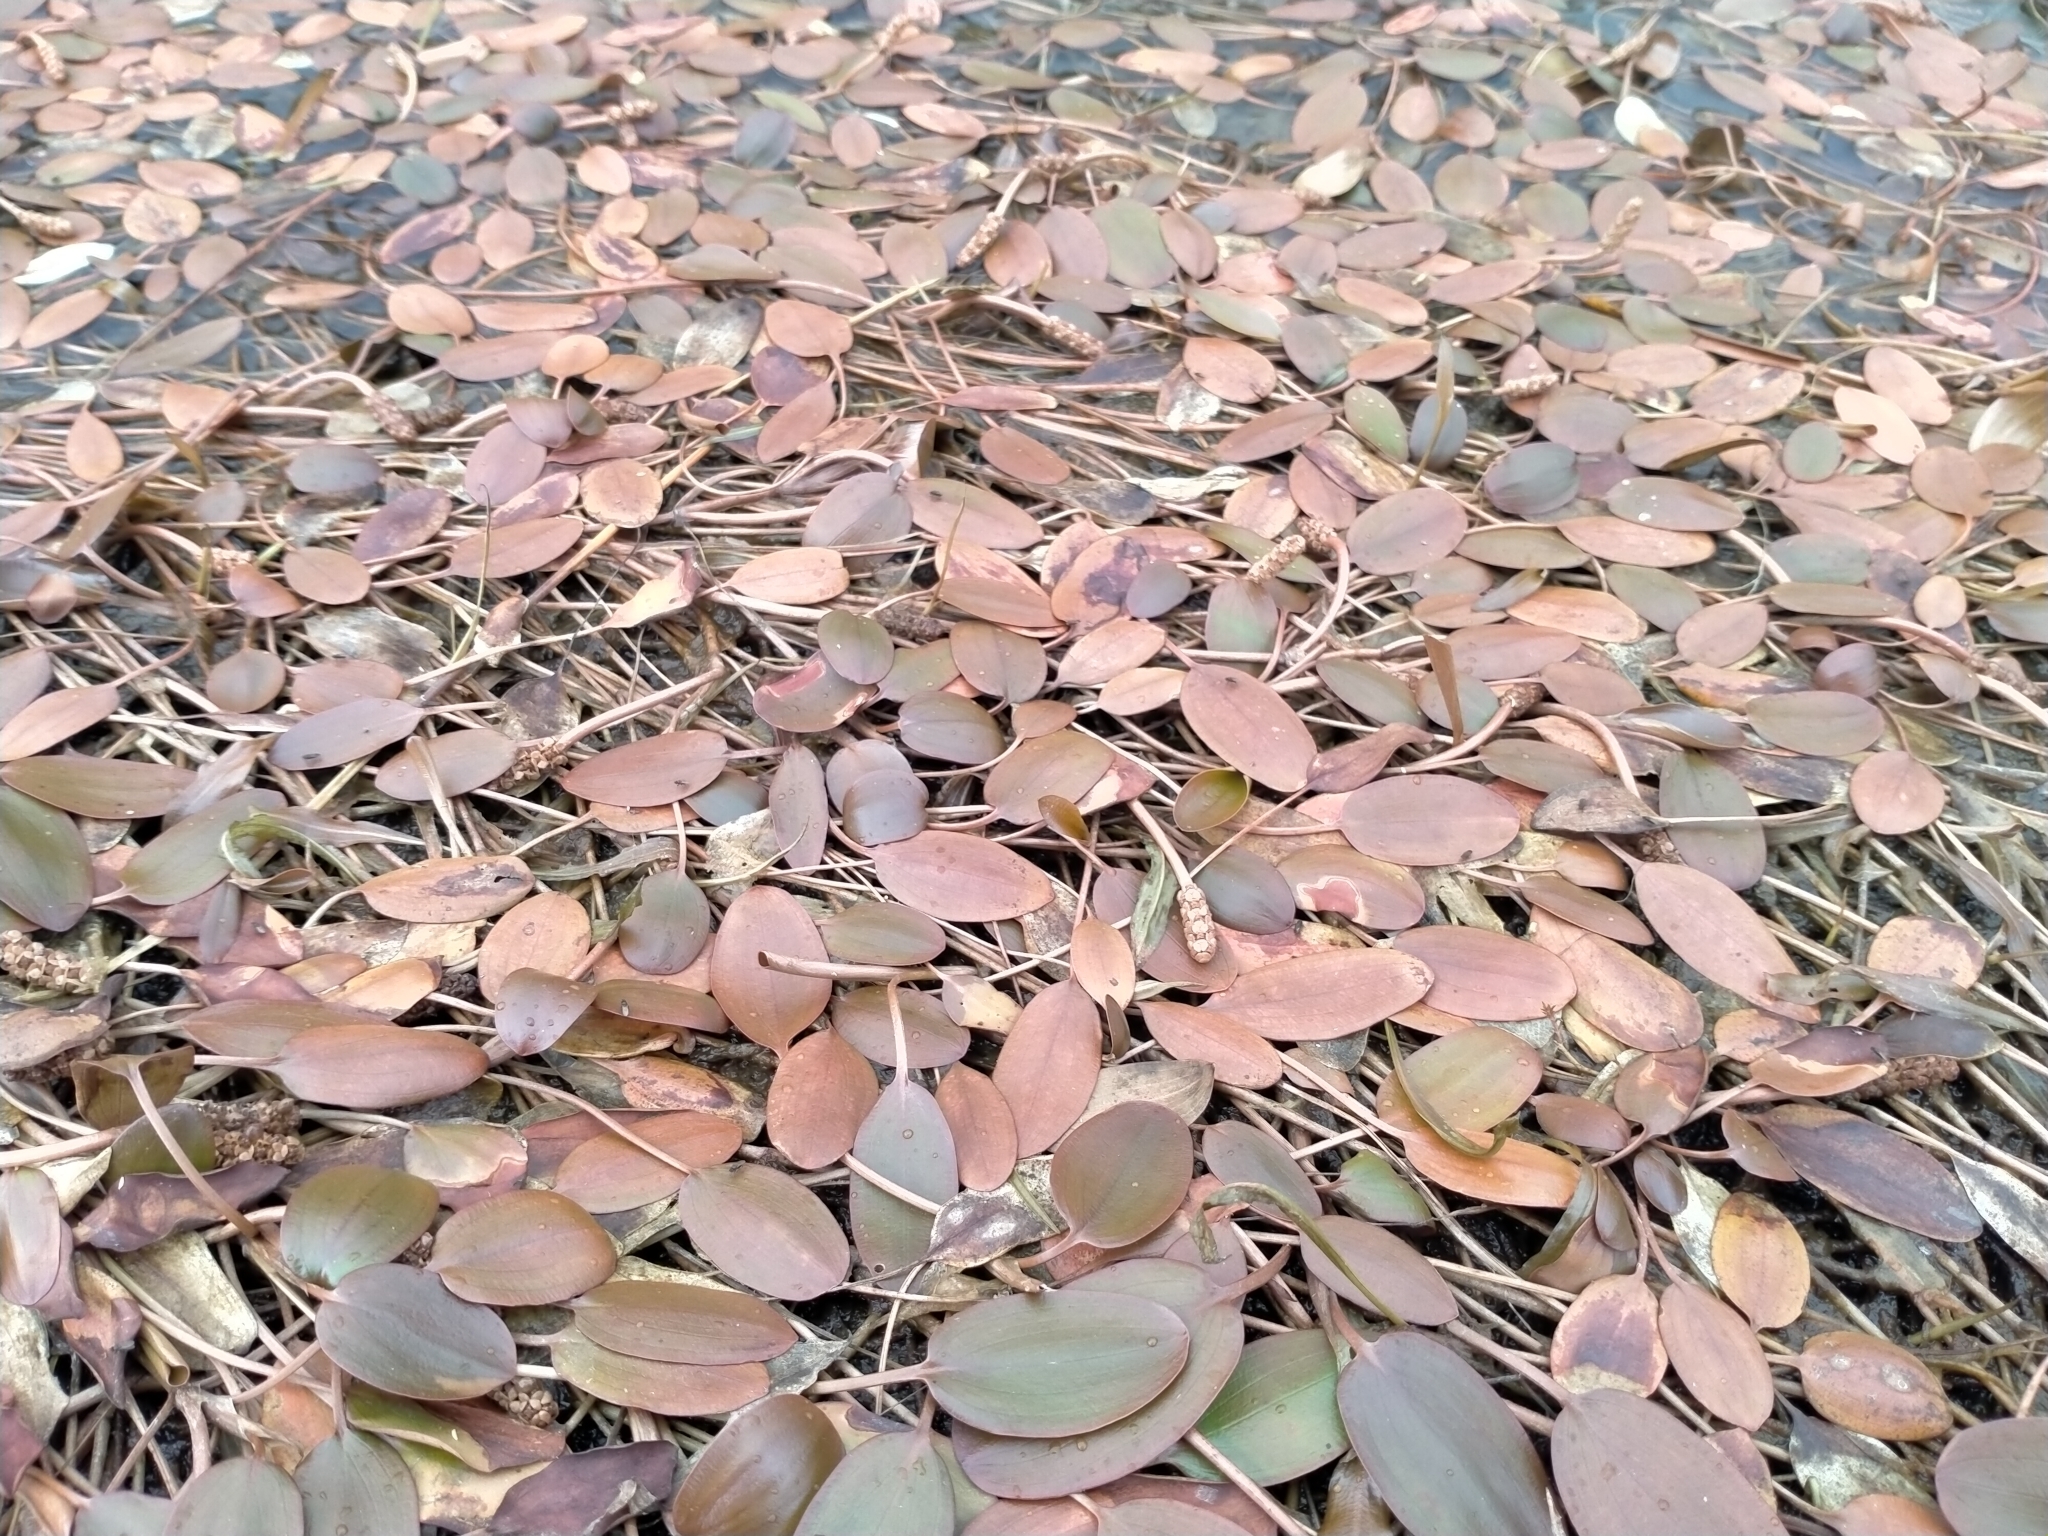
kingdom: Plantae
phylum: Tracheophyta
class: Liliopsida
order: Alismatales
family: Potamogetonaceae
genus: Potamogeton
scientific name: Potamogeton cheesemanii
